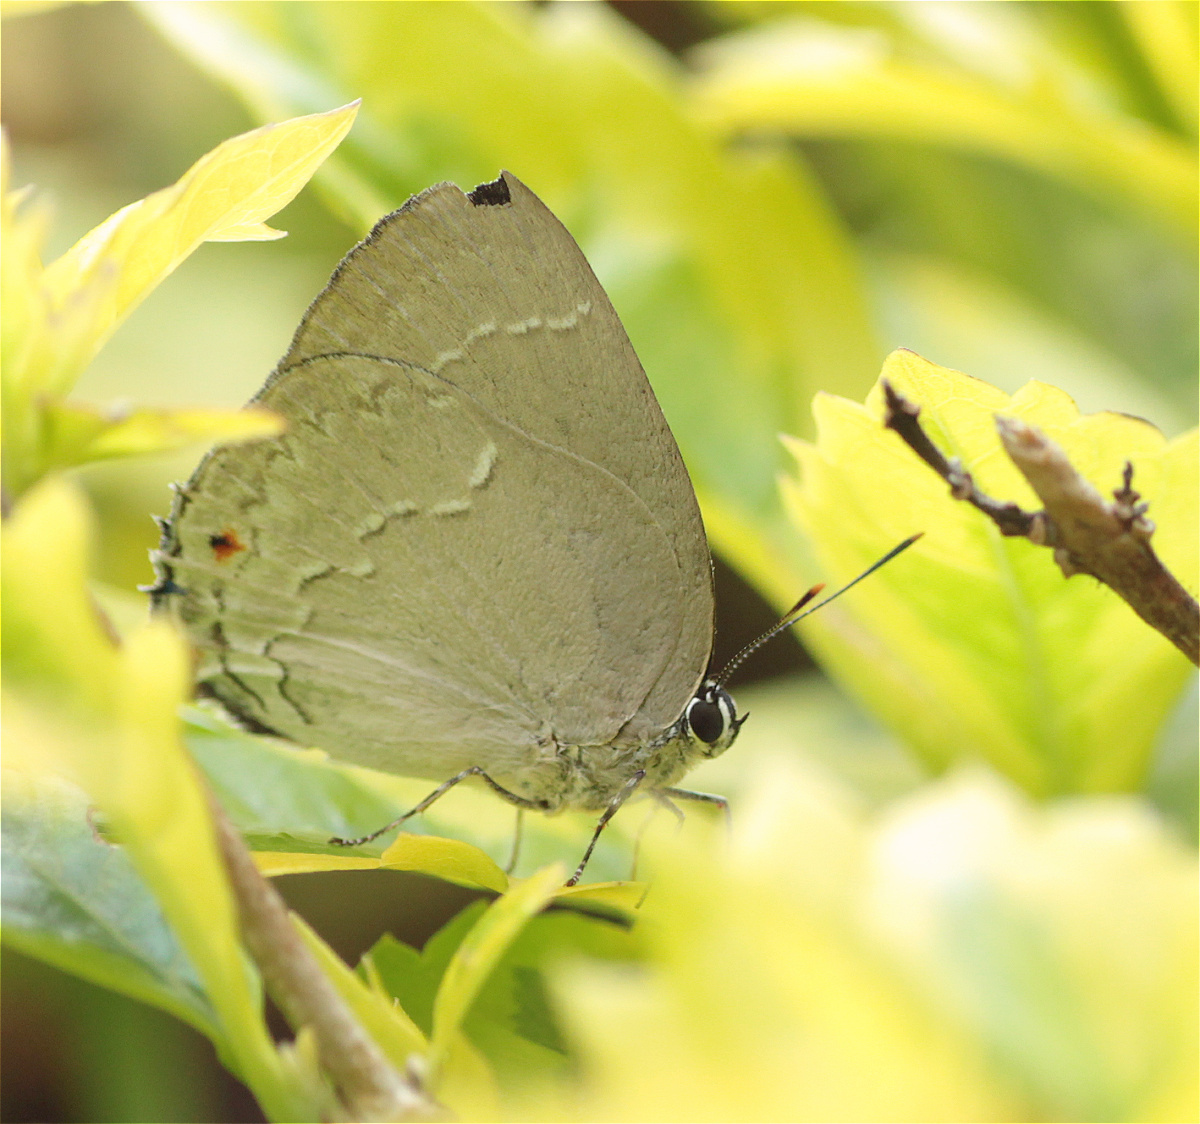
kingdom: Animalia
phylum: Arthropoda
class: Insecta
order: Lepidoptera
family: Lycaenidae
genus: Thecla
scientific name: Thecla ambrax
